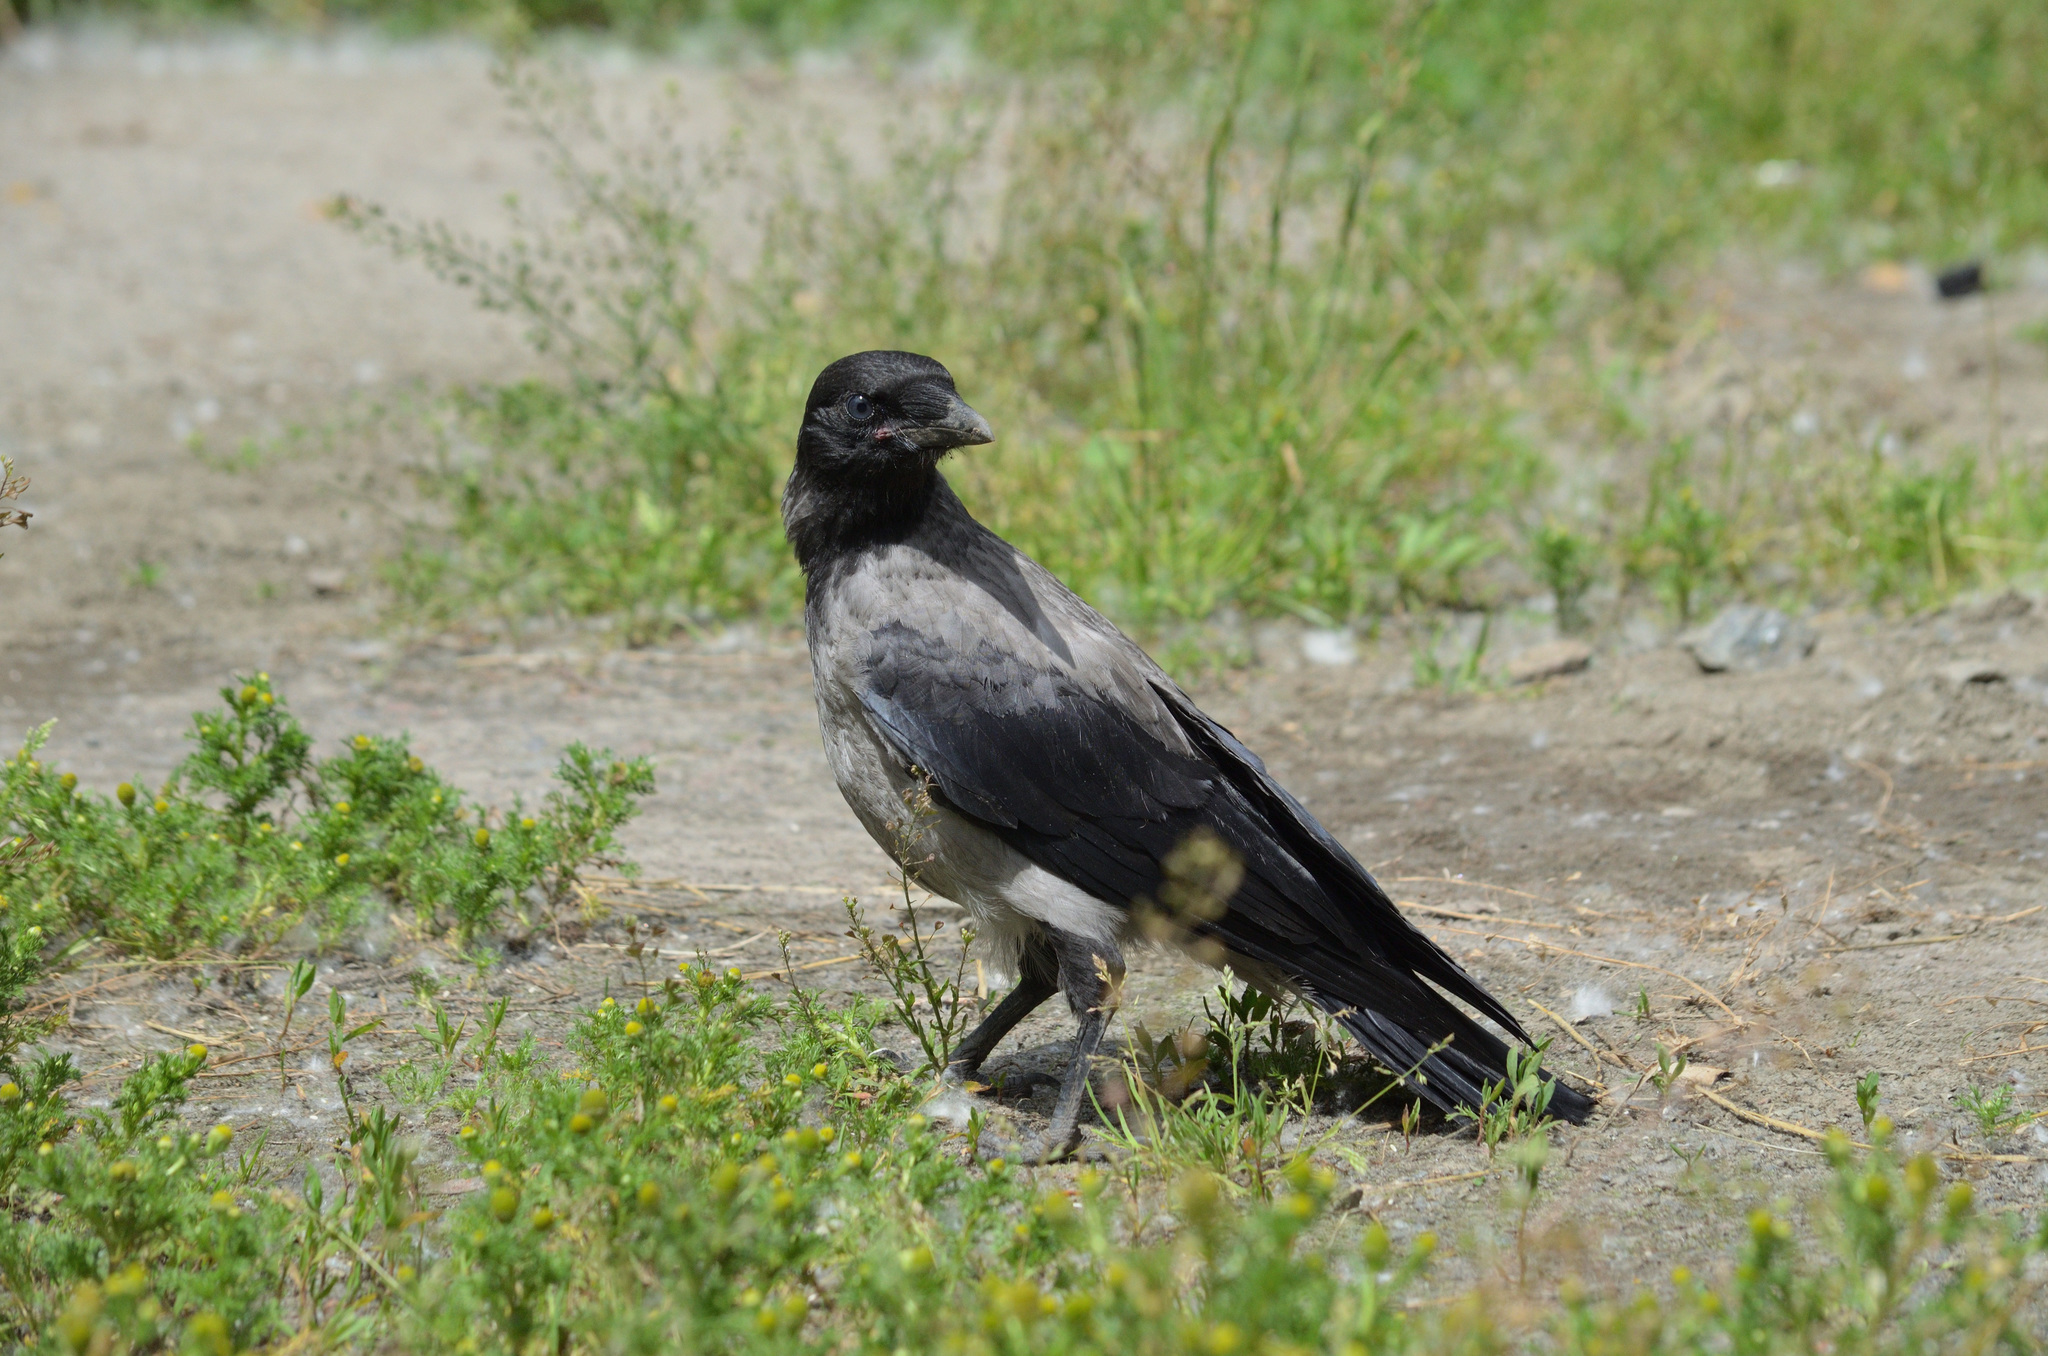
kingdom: Animalia
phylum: Chordata
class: Aves
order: Passeriformes
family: Corvidae
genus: Corvus
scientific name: Corvus cornix
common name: Hooded crow
